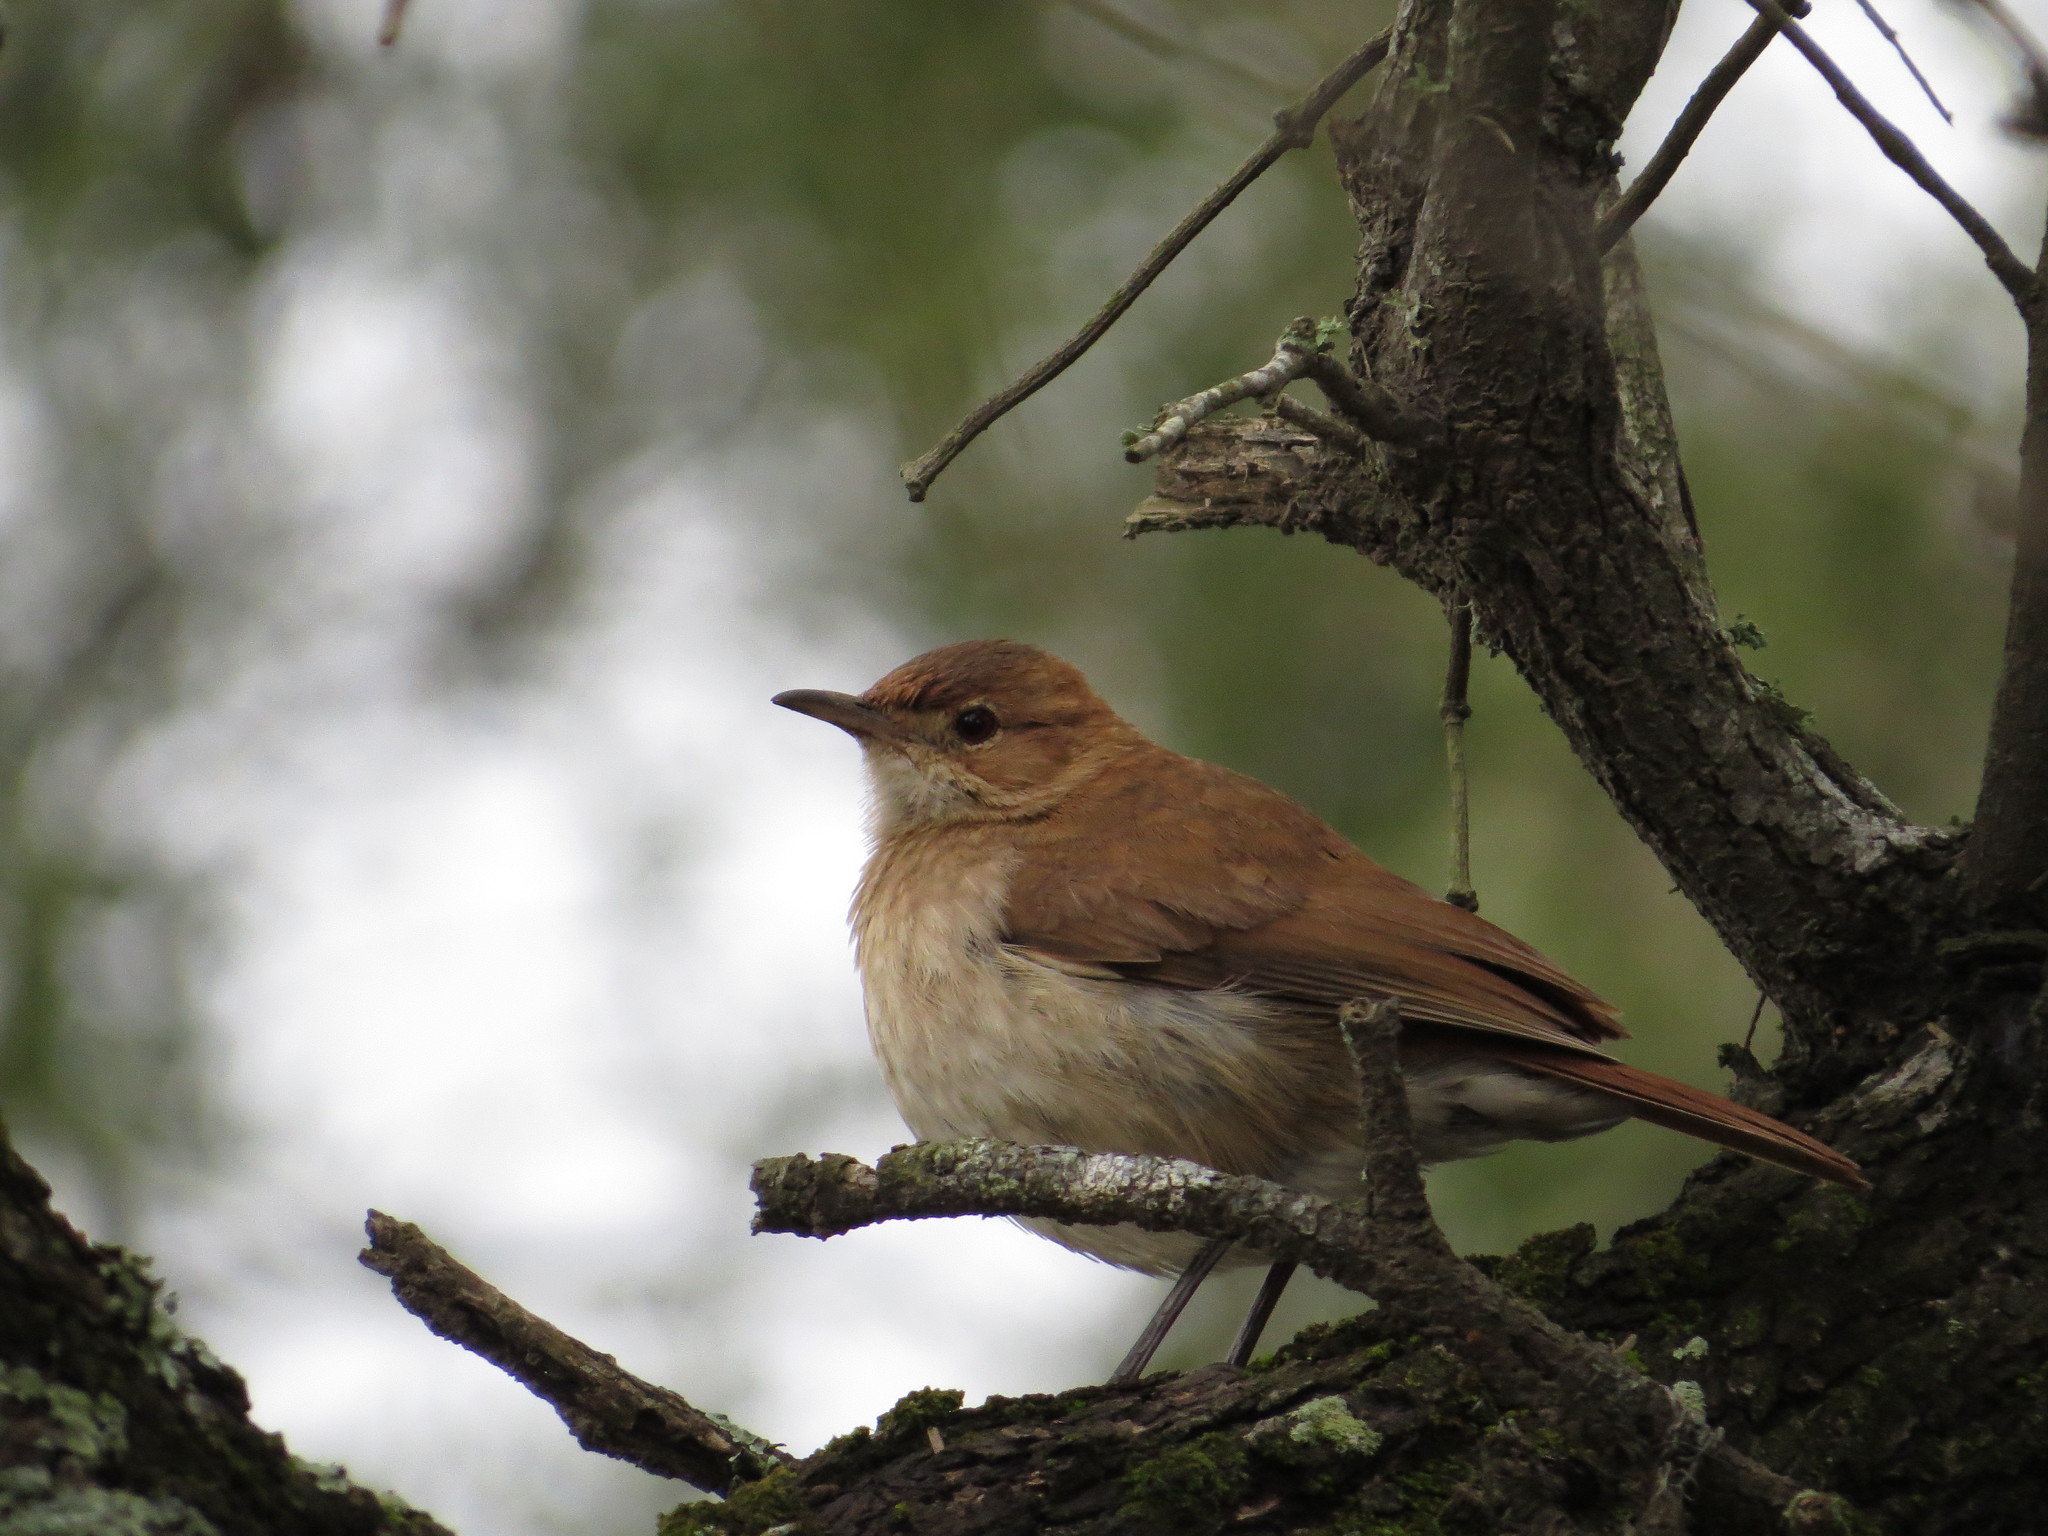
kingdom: Animalia
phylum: Chordata
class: Aves
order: Passeriformes
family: Furnariidae
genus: Furnarius
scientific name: Furnarius rufus
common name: Rufous hornero
